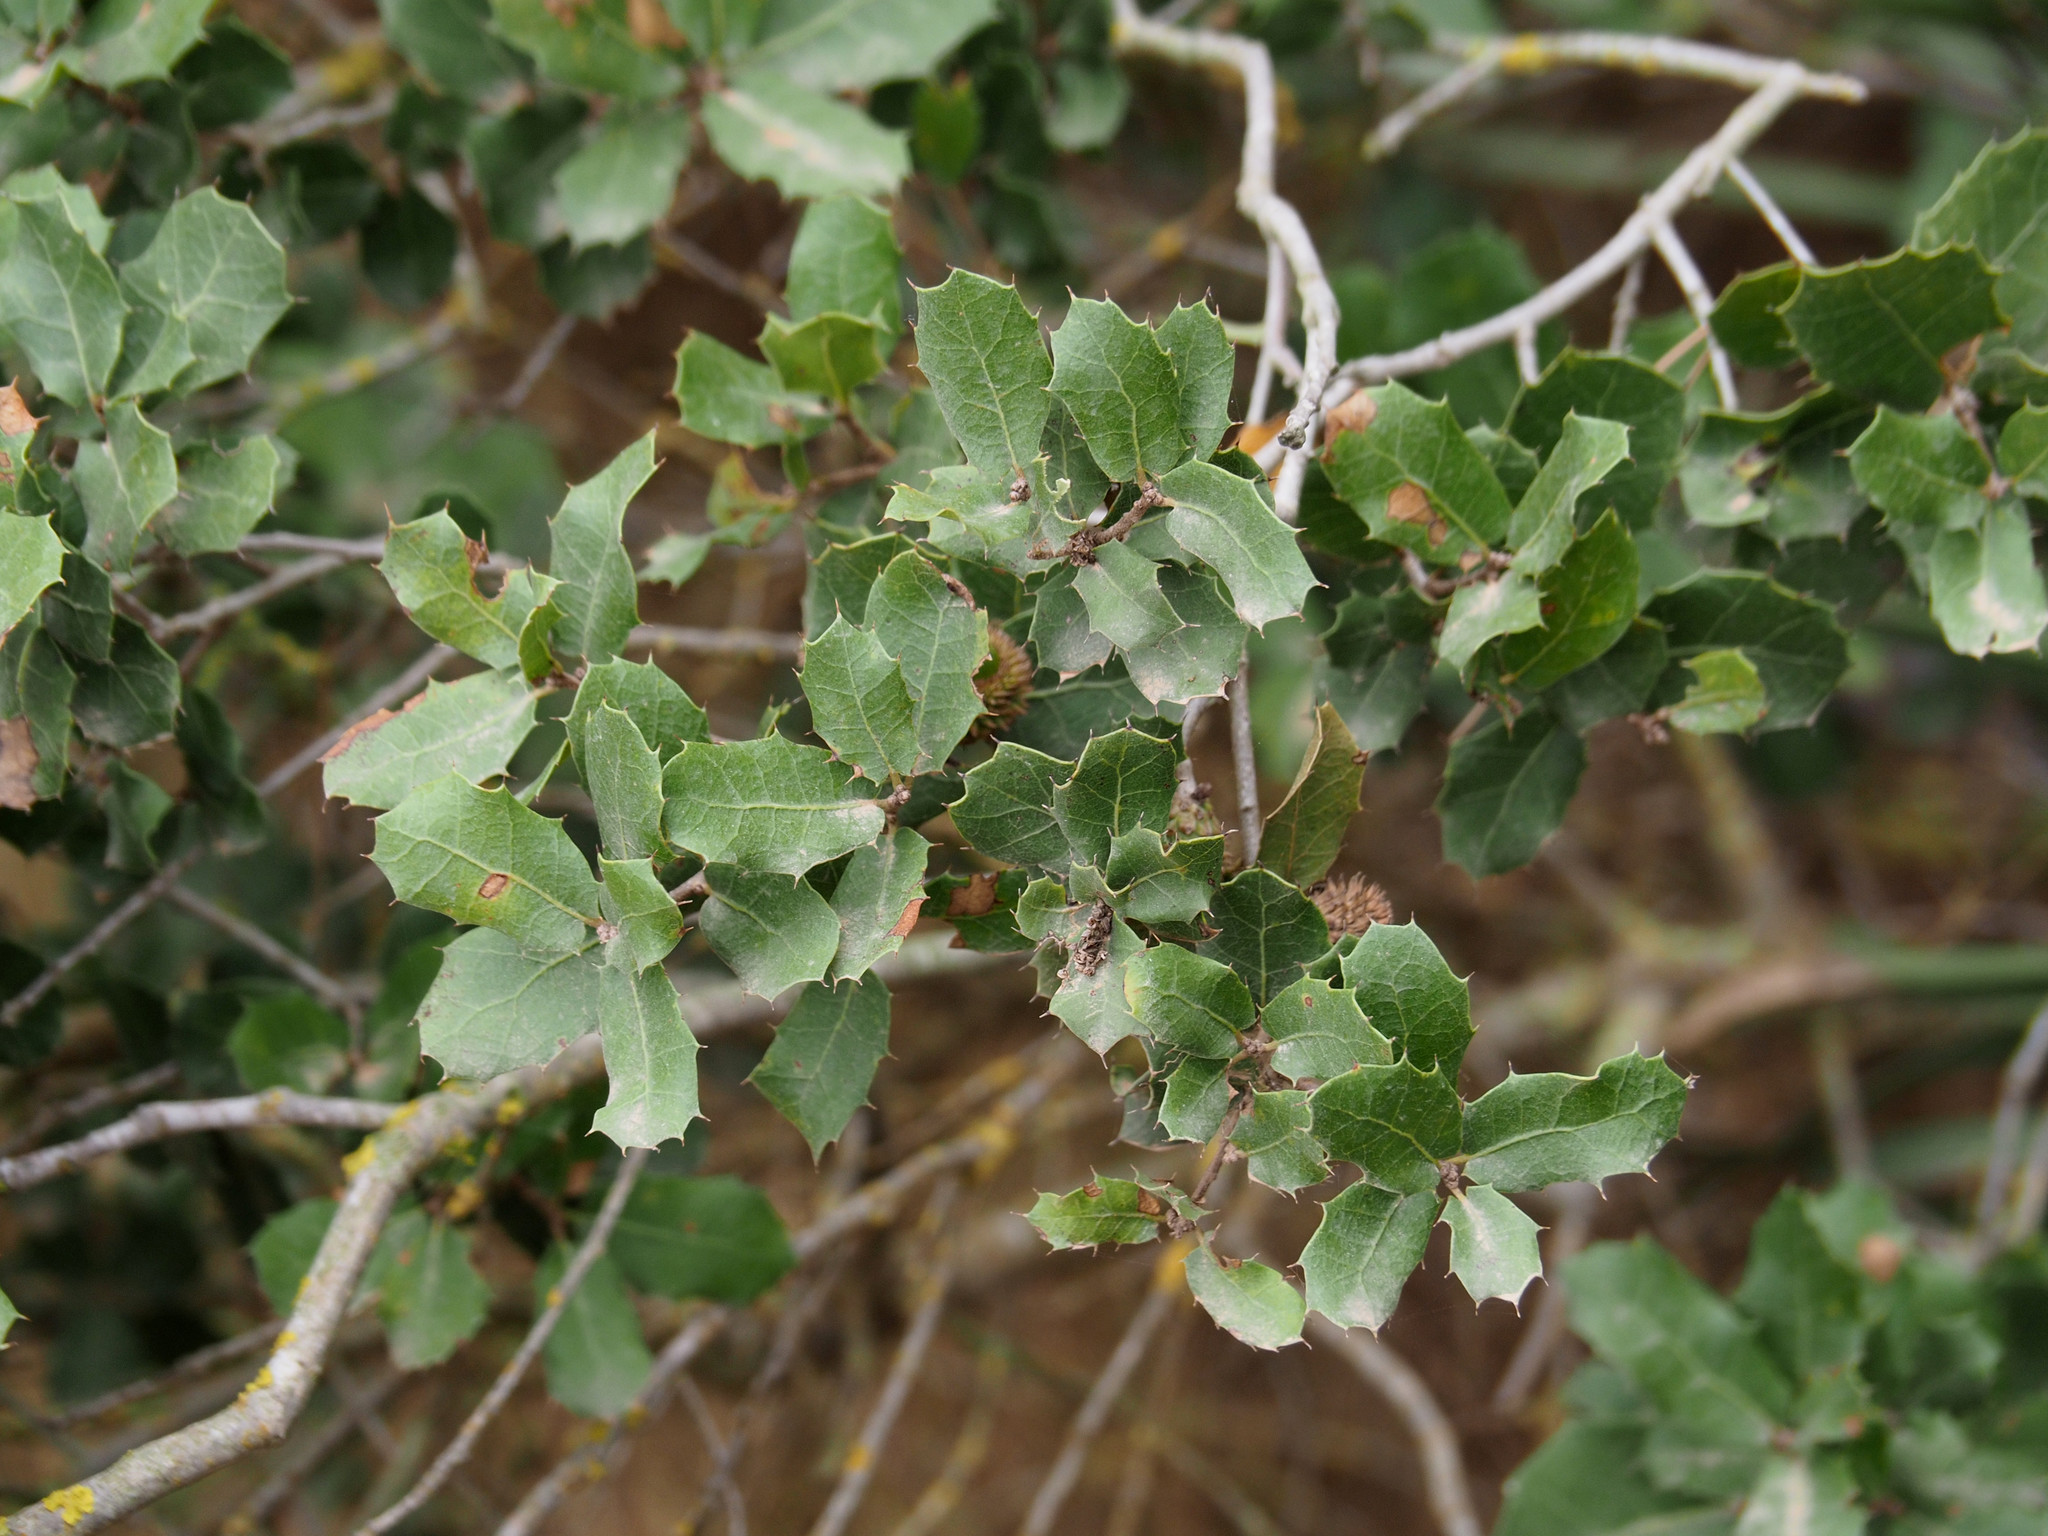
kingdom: Plantae
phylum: Tracheophyta
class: Magnoliopsida
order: Fagales
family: Fagaceae
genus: Quercus
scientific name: Quercus coccifera
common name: Kermes oak
